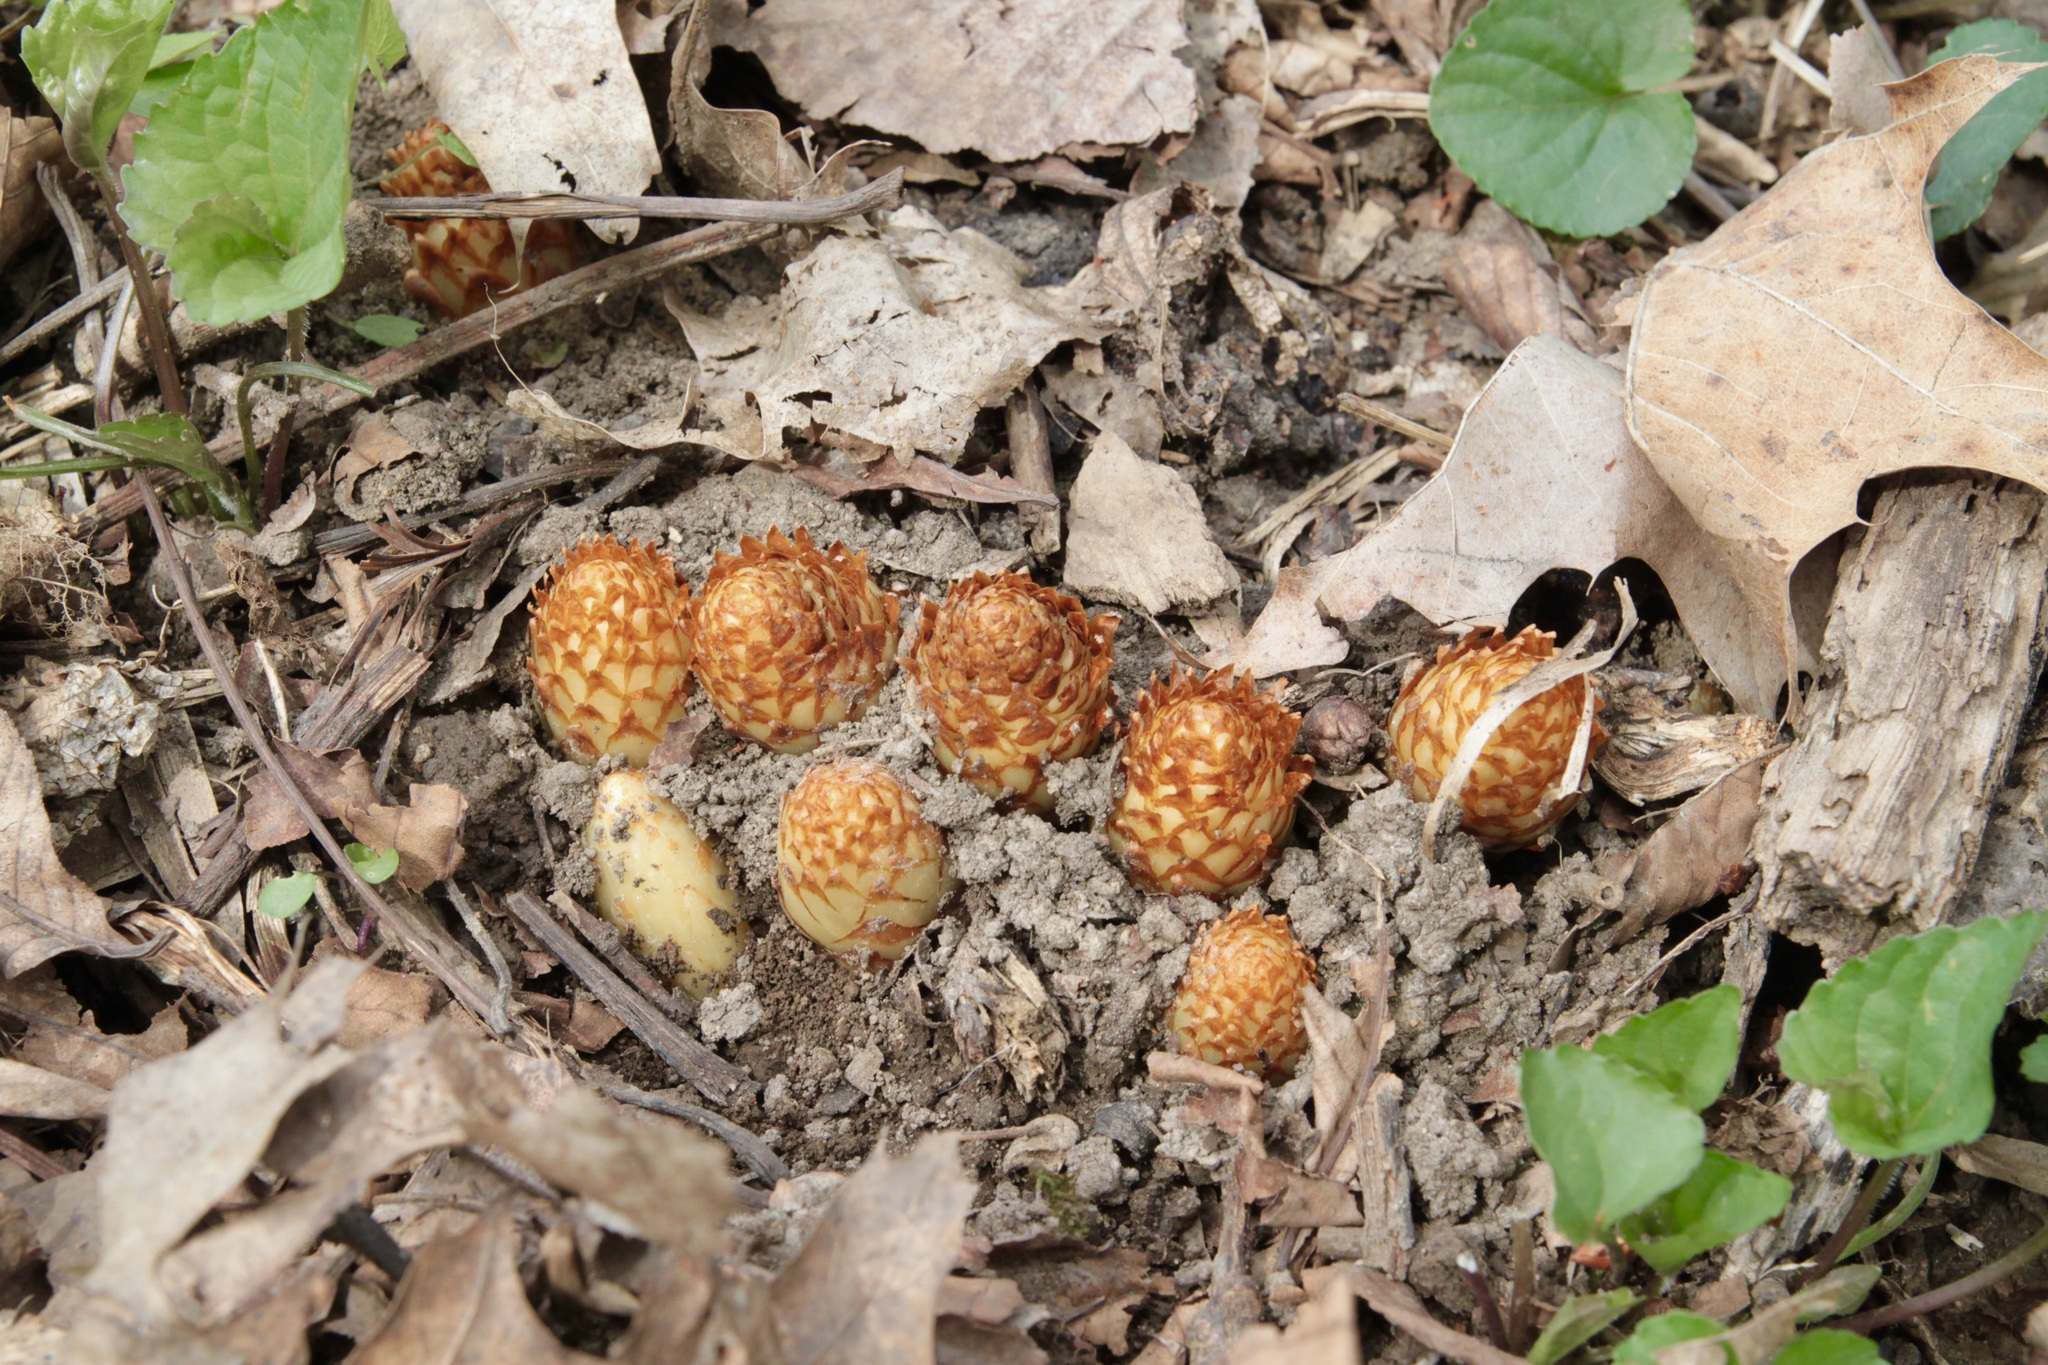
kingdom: Plantae
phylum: Tracheophyta
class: Magnoliopsida
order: Lamiales
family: Orobanchaceae
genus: Conopholis
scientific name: Conopholis americana
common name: American cancer-root
